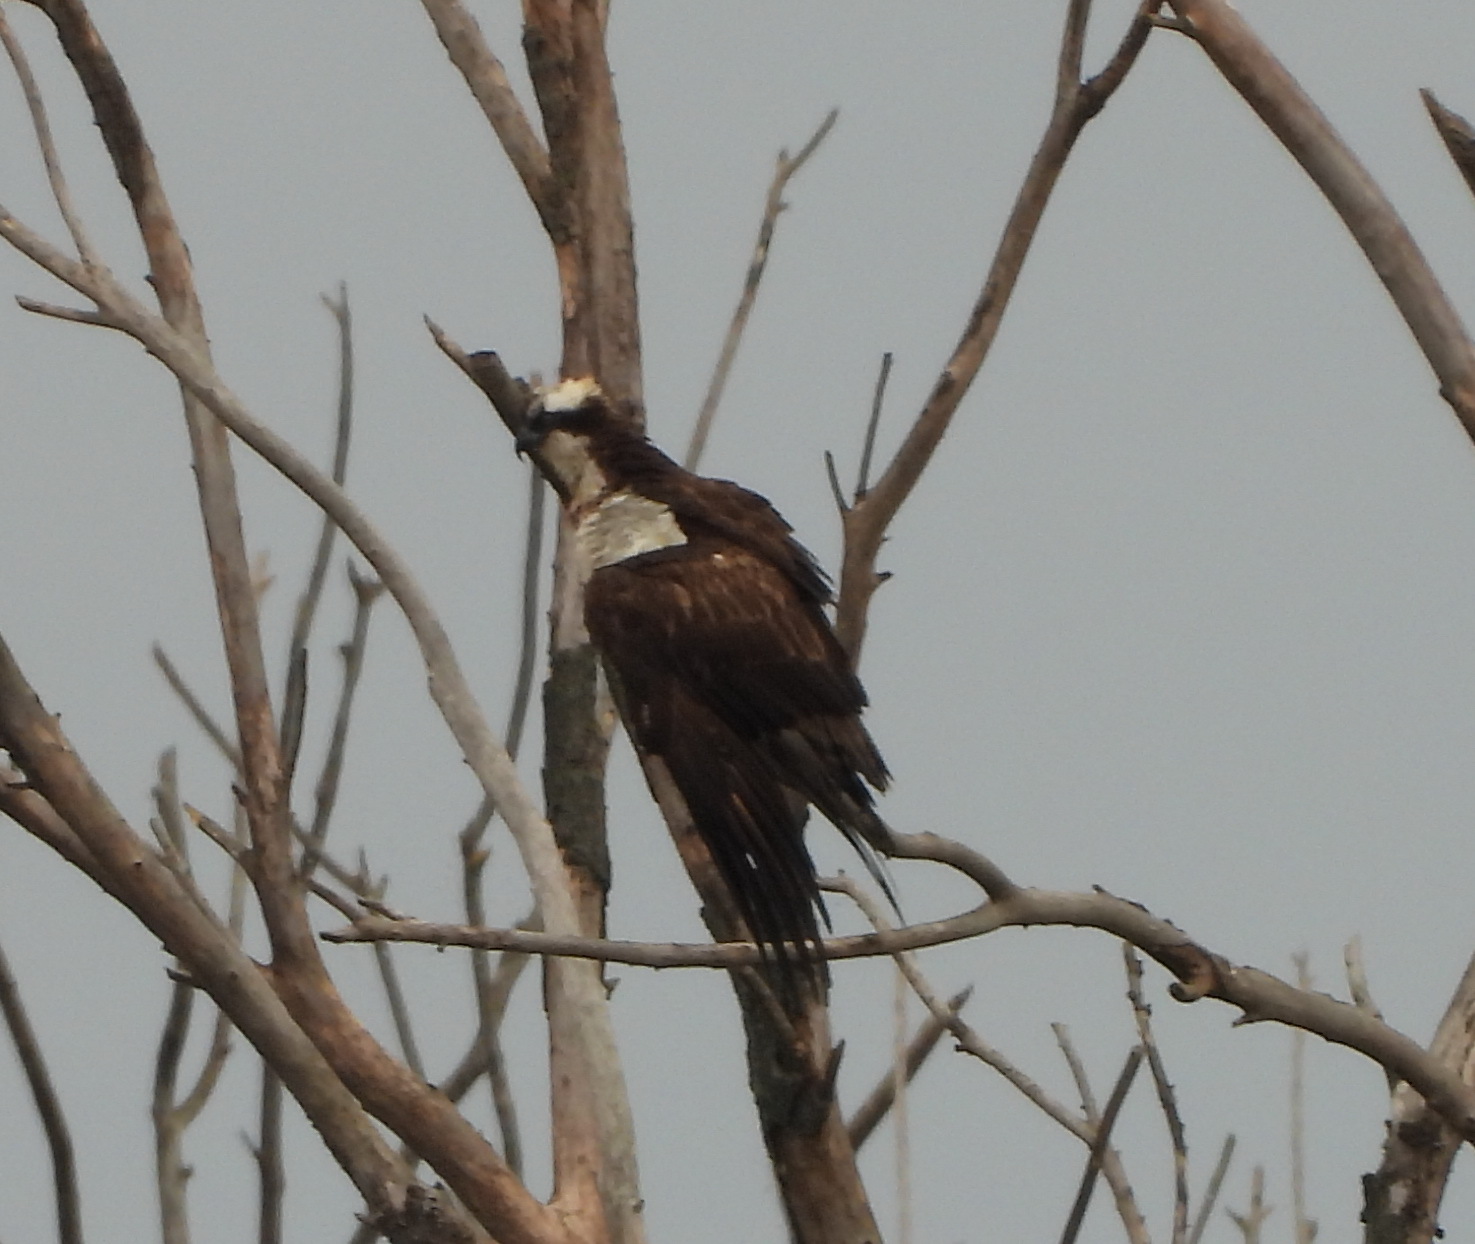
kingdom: Animalia
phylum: Chordata
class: Aves
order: Accipitriformes
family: Pandionidae
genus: Pandion
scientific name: Pandion haliaetus
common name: Osprey
